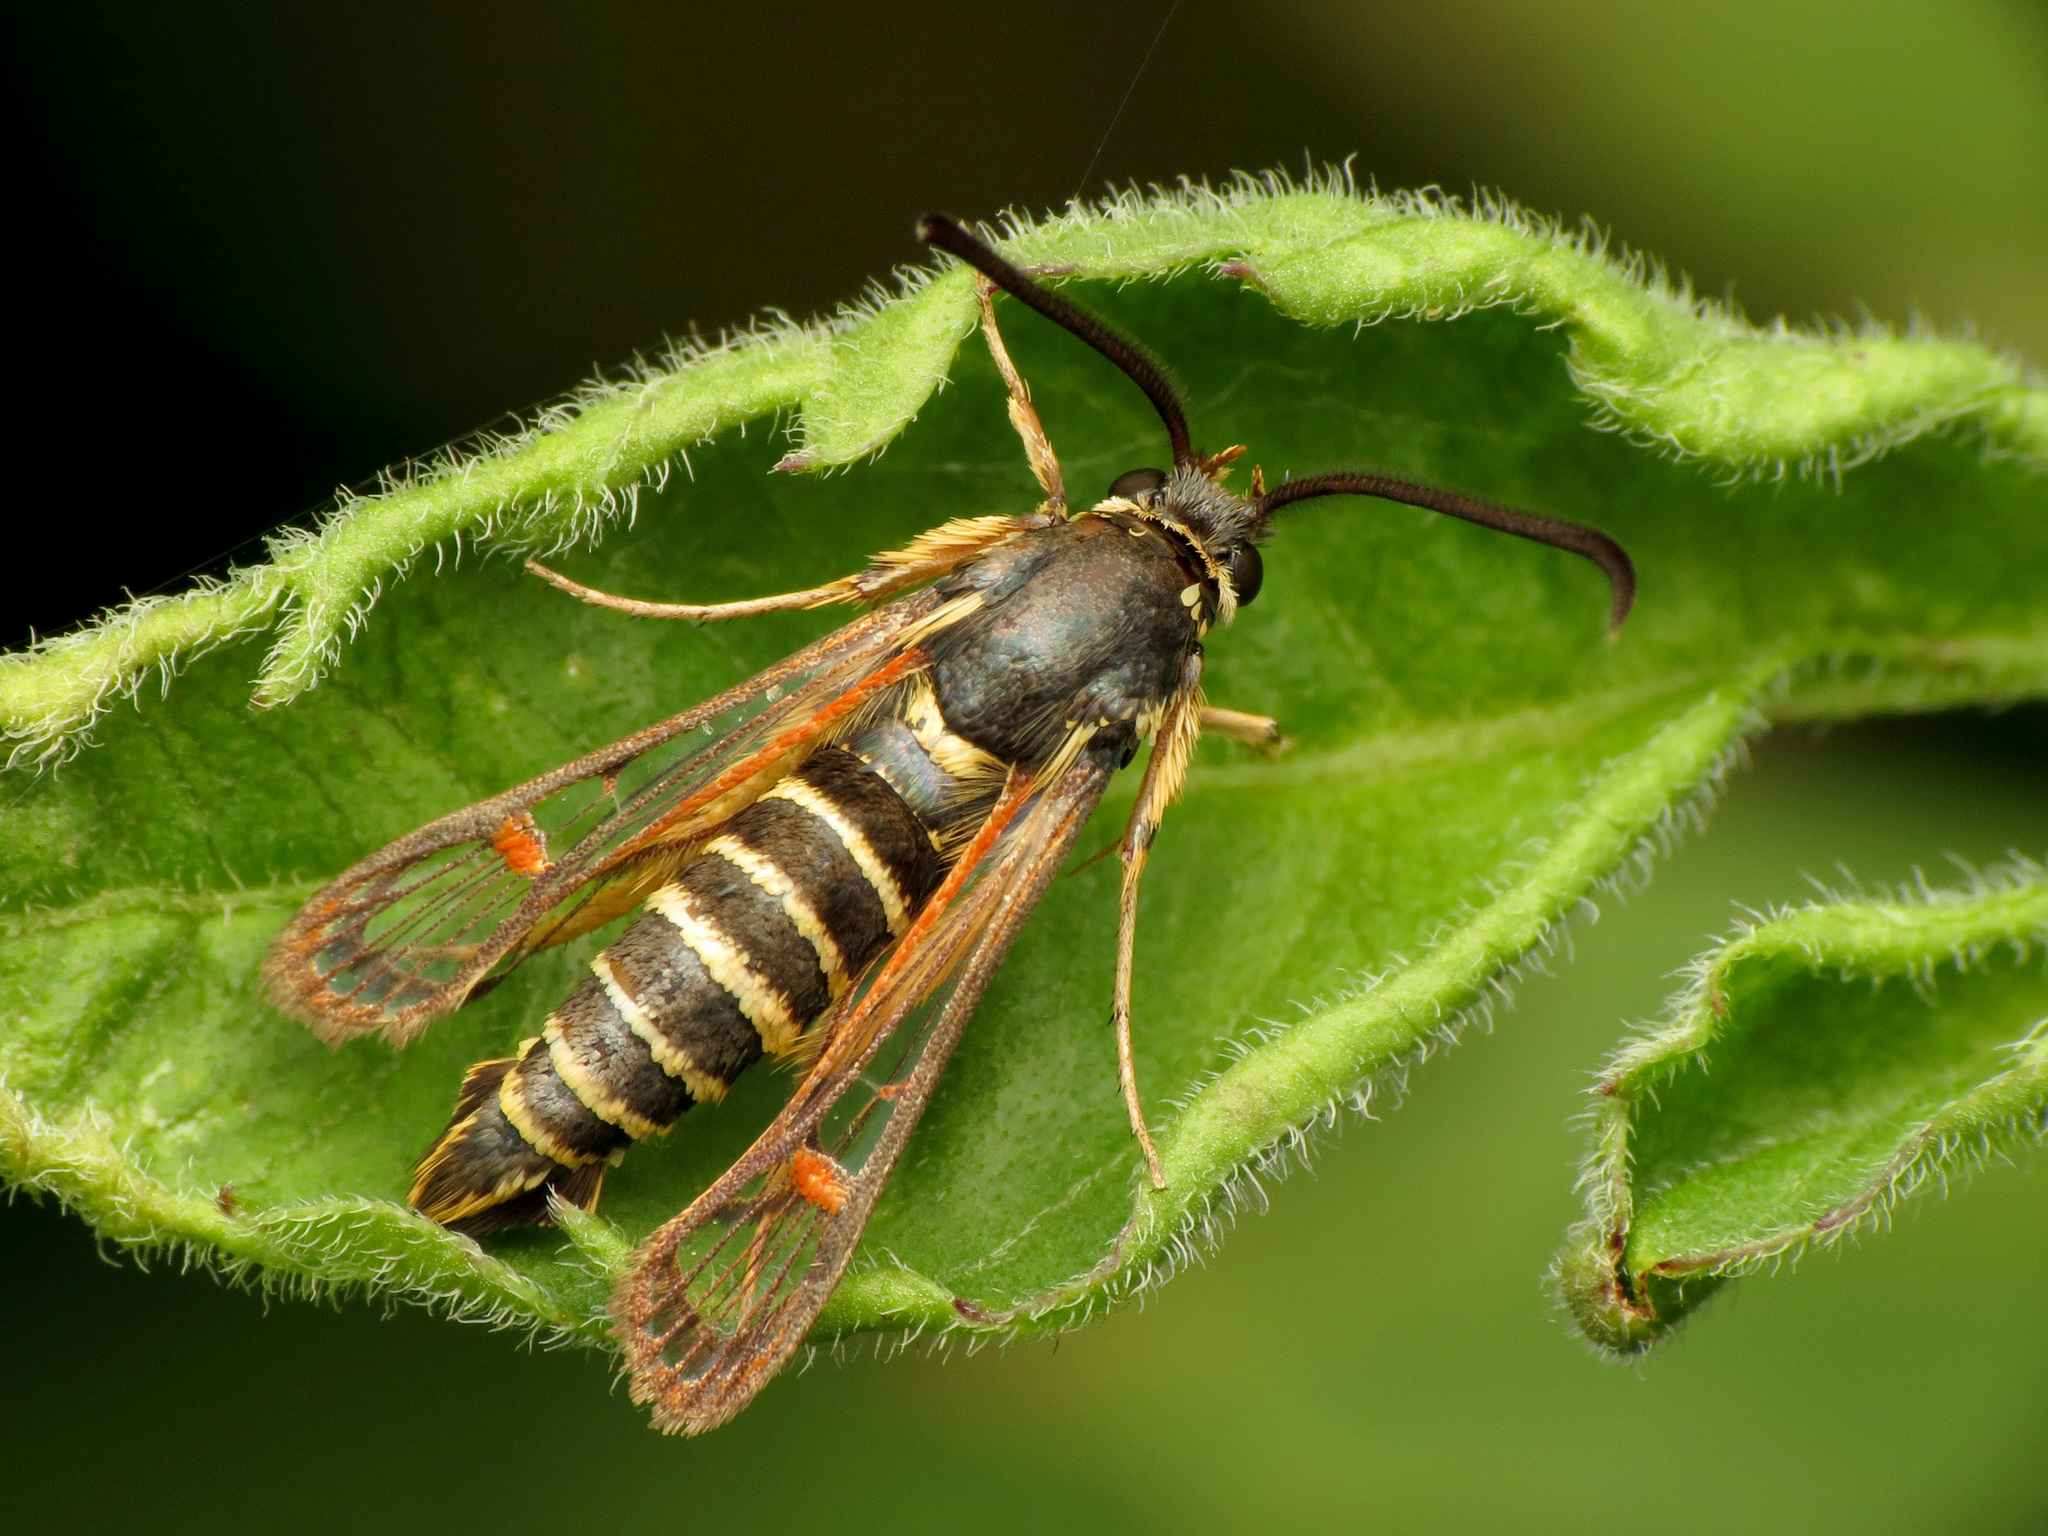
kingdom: Animalia
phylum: Arthropoda
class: Insecta
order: Lepidoptera
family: Sesiidae
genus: Synanthedon
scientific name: Synanthedon rileyana
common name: Riley's clearwing moth
